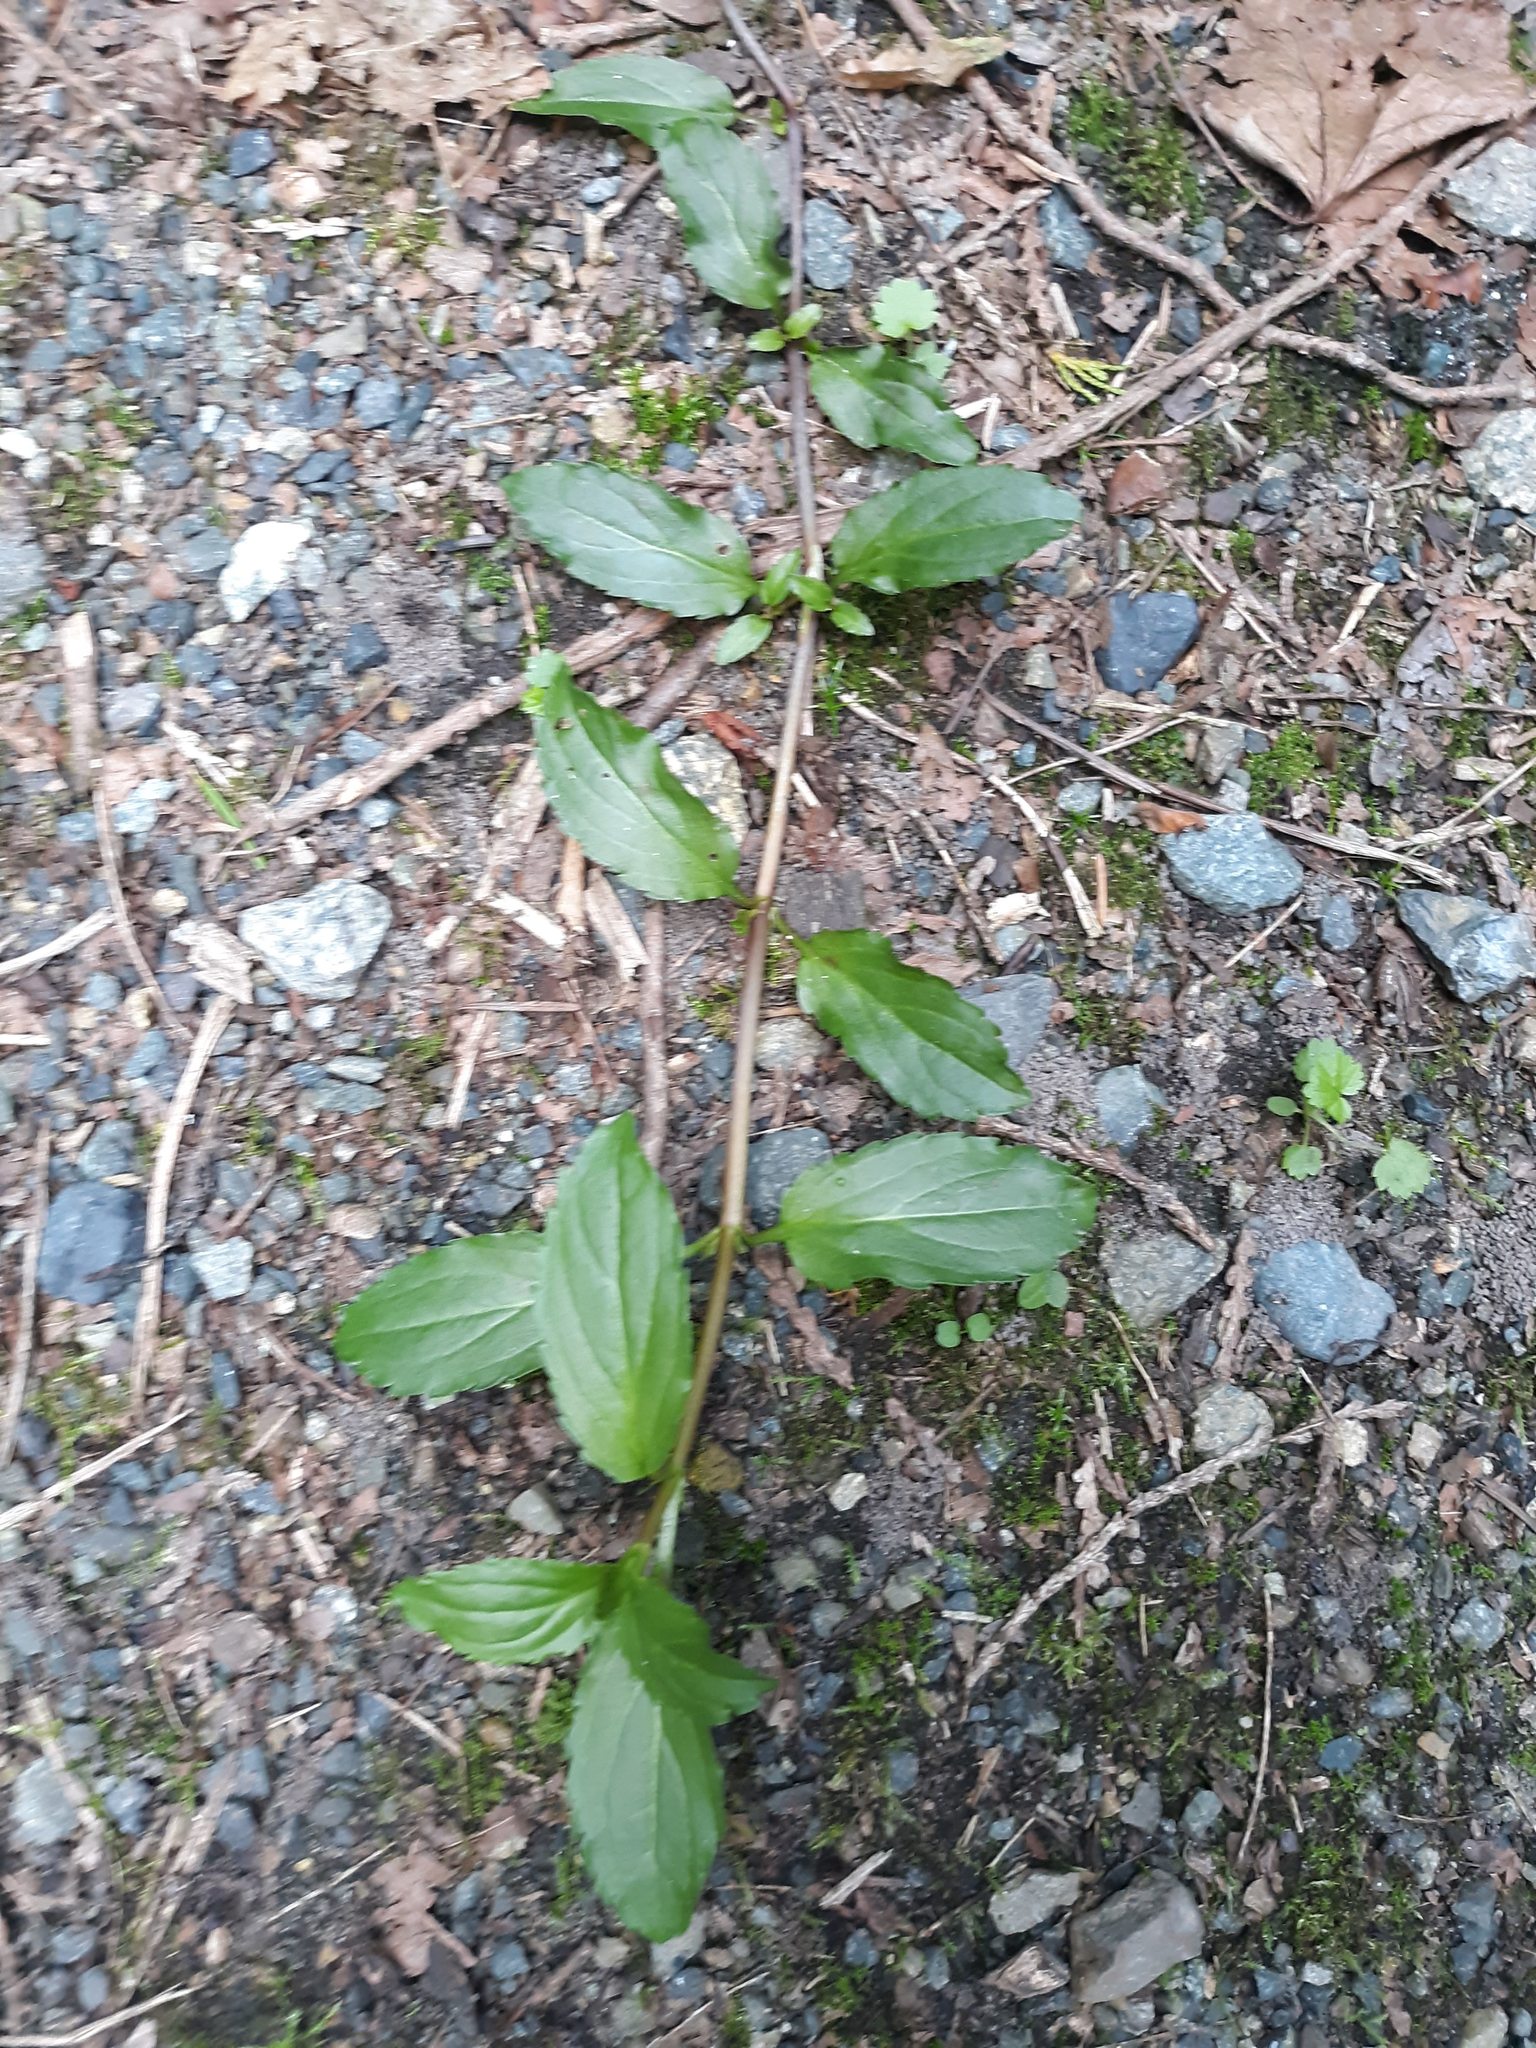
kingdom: Plantae
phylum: Tracheophyta
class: Magnoliopsida
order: Lamiales
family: Plantaginaceae
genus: Veronica
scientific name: Veronica americana
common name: American brooklime
